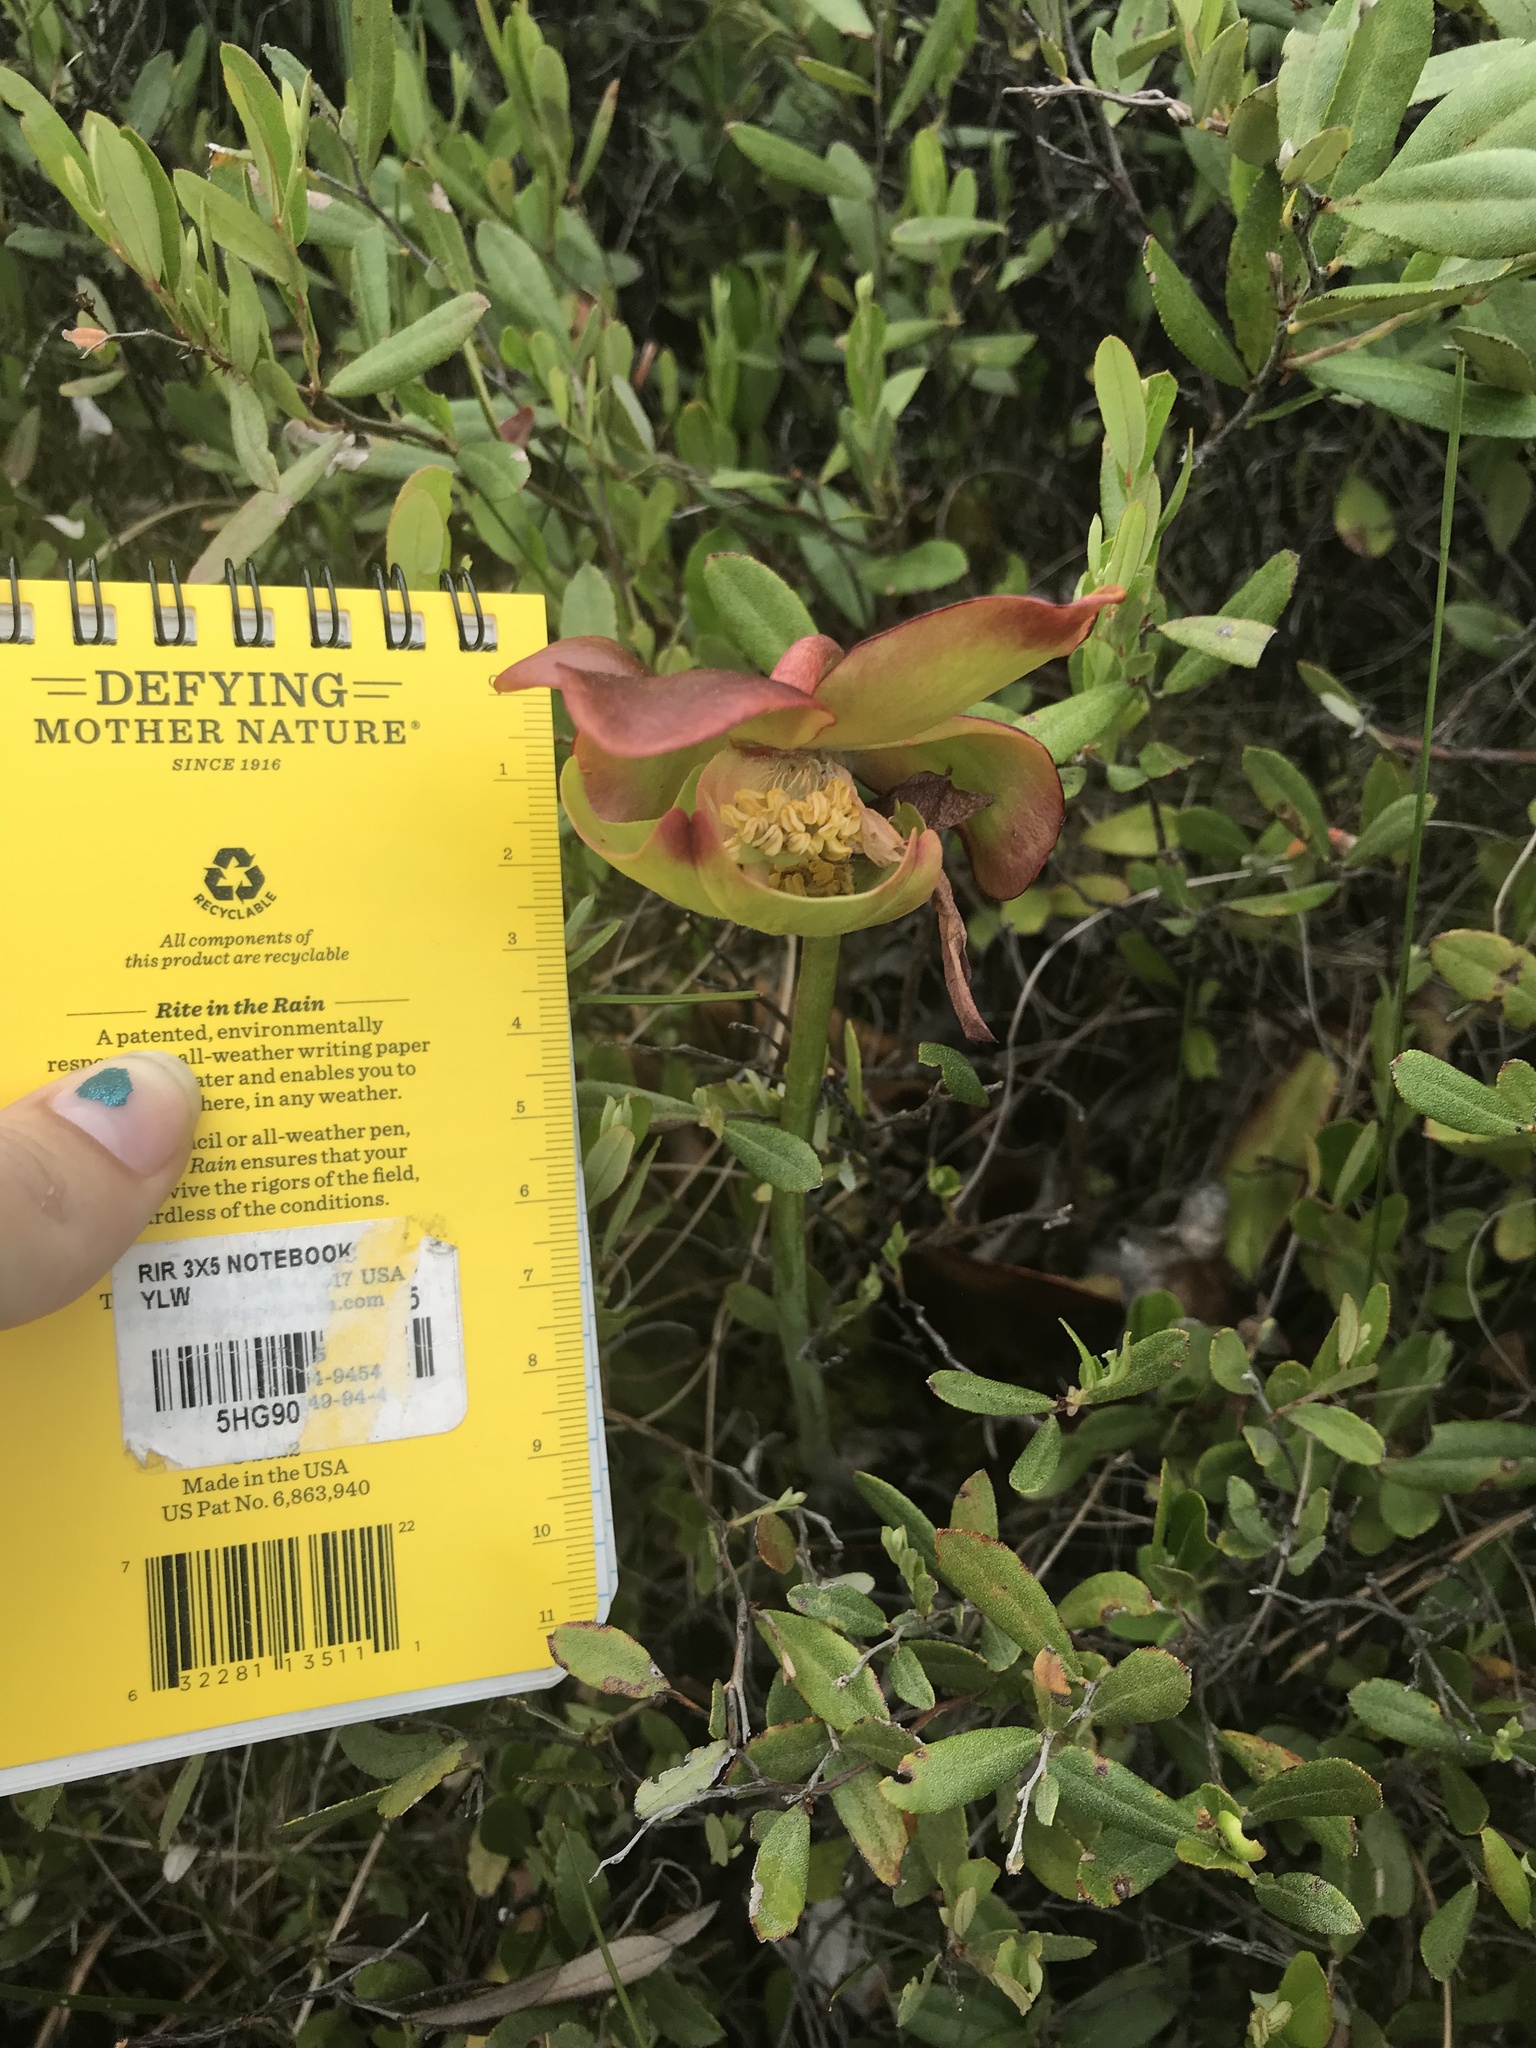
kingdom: Plantae
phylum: Tracheophyta
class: Magnoliopsida
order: Ericales
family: Sarraceniaceae
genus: Sarracenia
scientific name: Sarracenia purpurea
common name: Pitcherplant
